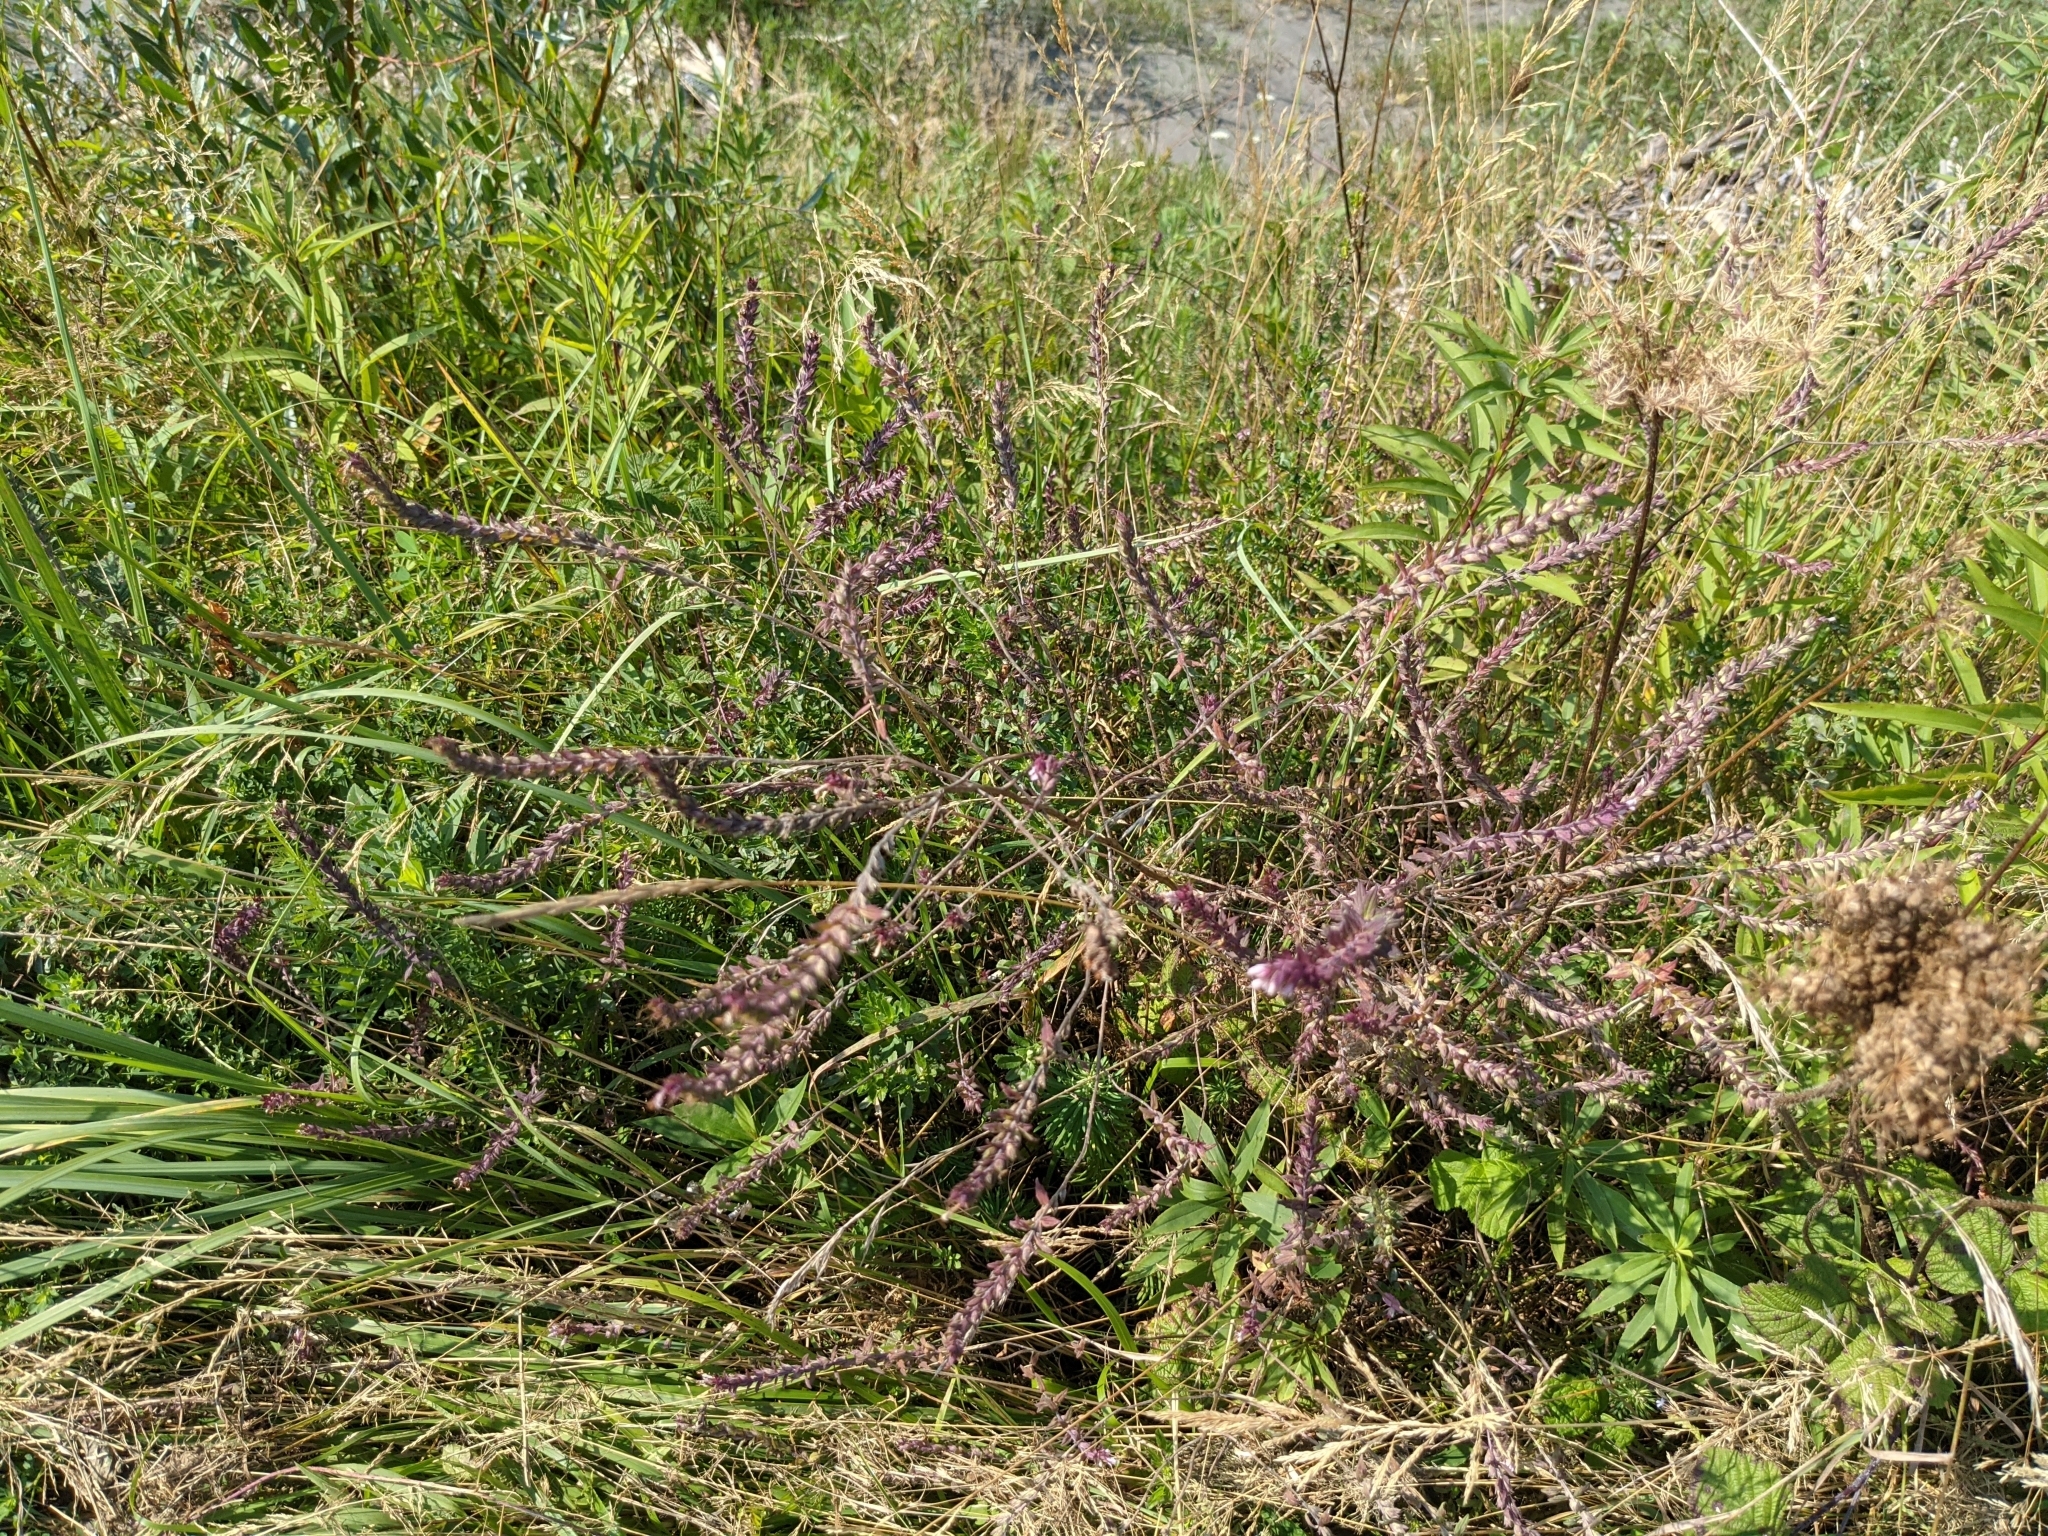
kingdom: Plantae
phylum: Tracheophyta
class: Magnoliopsida
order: Lamiales
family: Orobanchaceae
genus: Odontites
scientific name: Odontites vulgaris
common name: Broomrape
